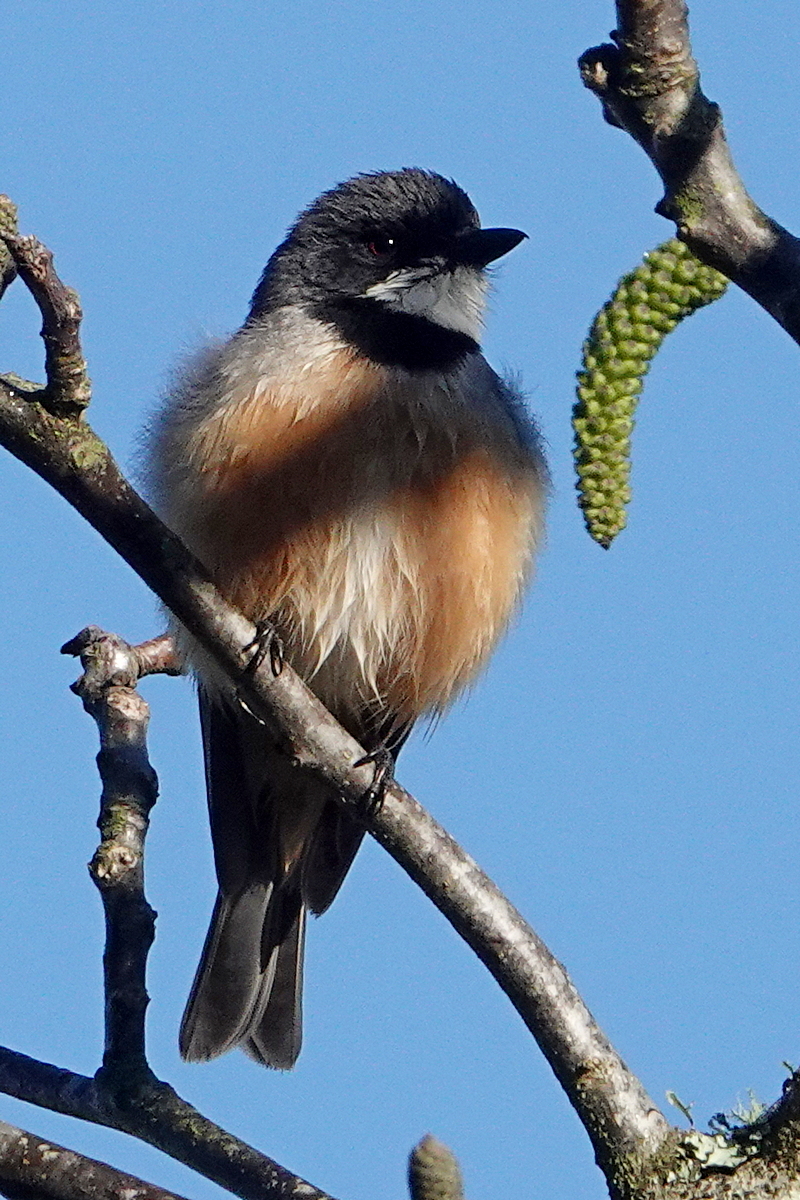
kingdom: Animalia
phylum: Chordata
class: Aves
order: Passeriformes
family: Pachycephalidae
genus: Pachycephala
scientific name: Pachycephala rufiventris
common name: Rufous whistler
